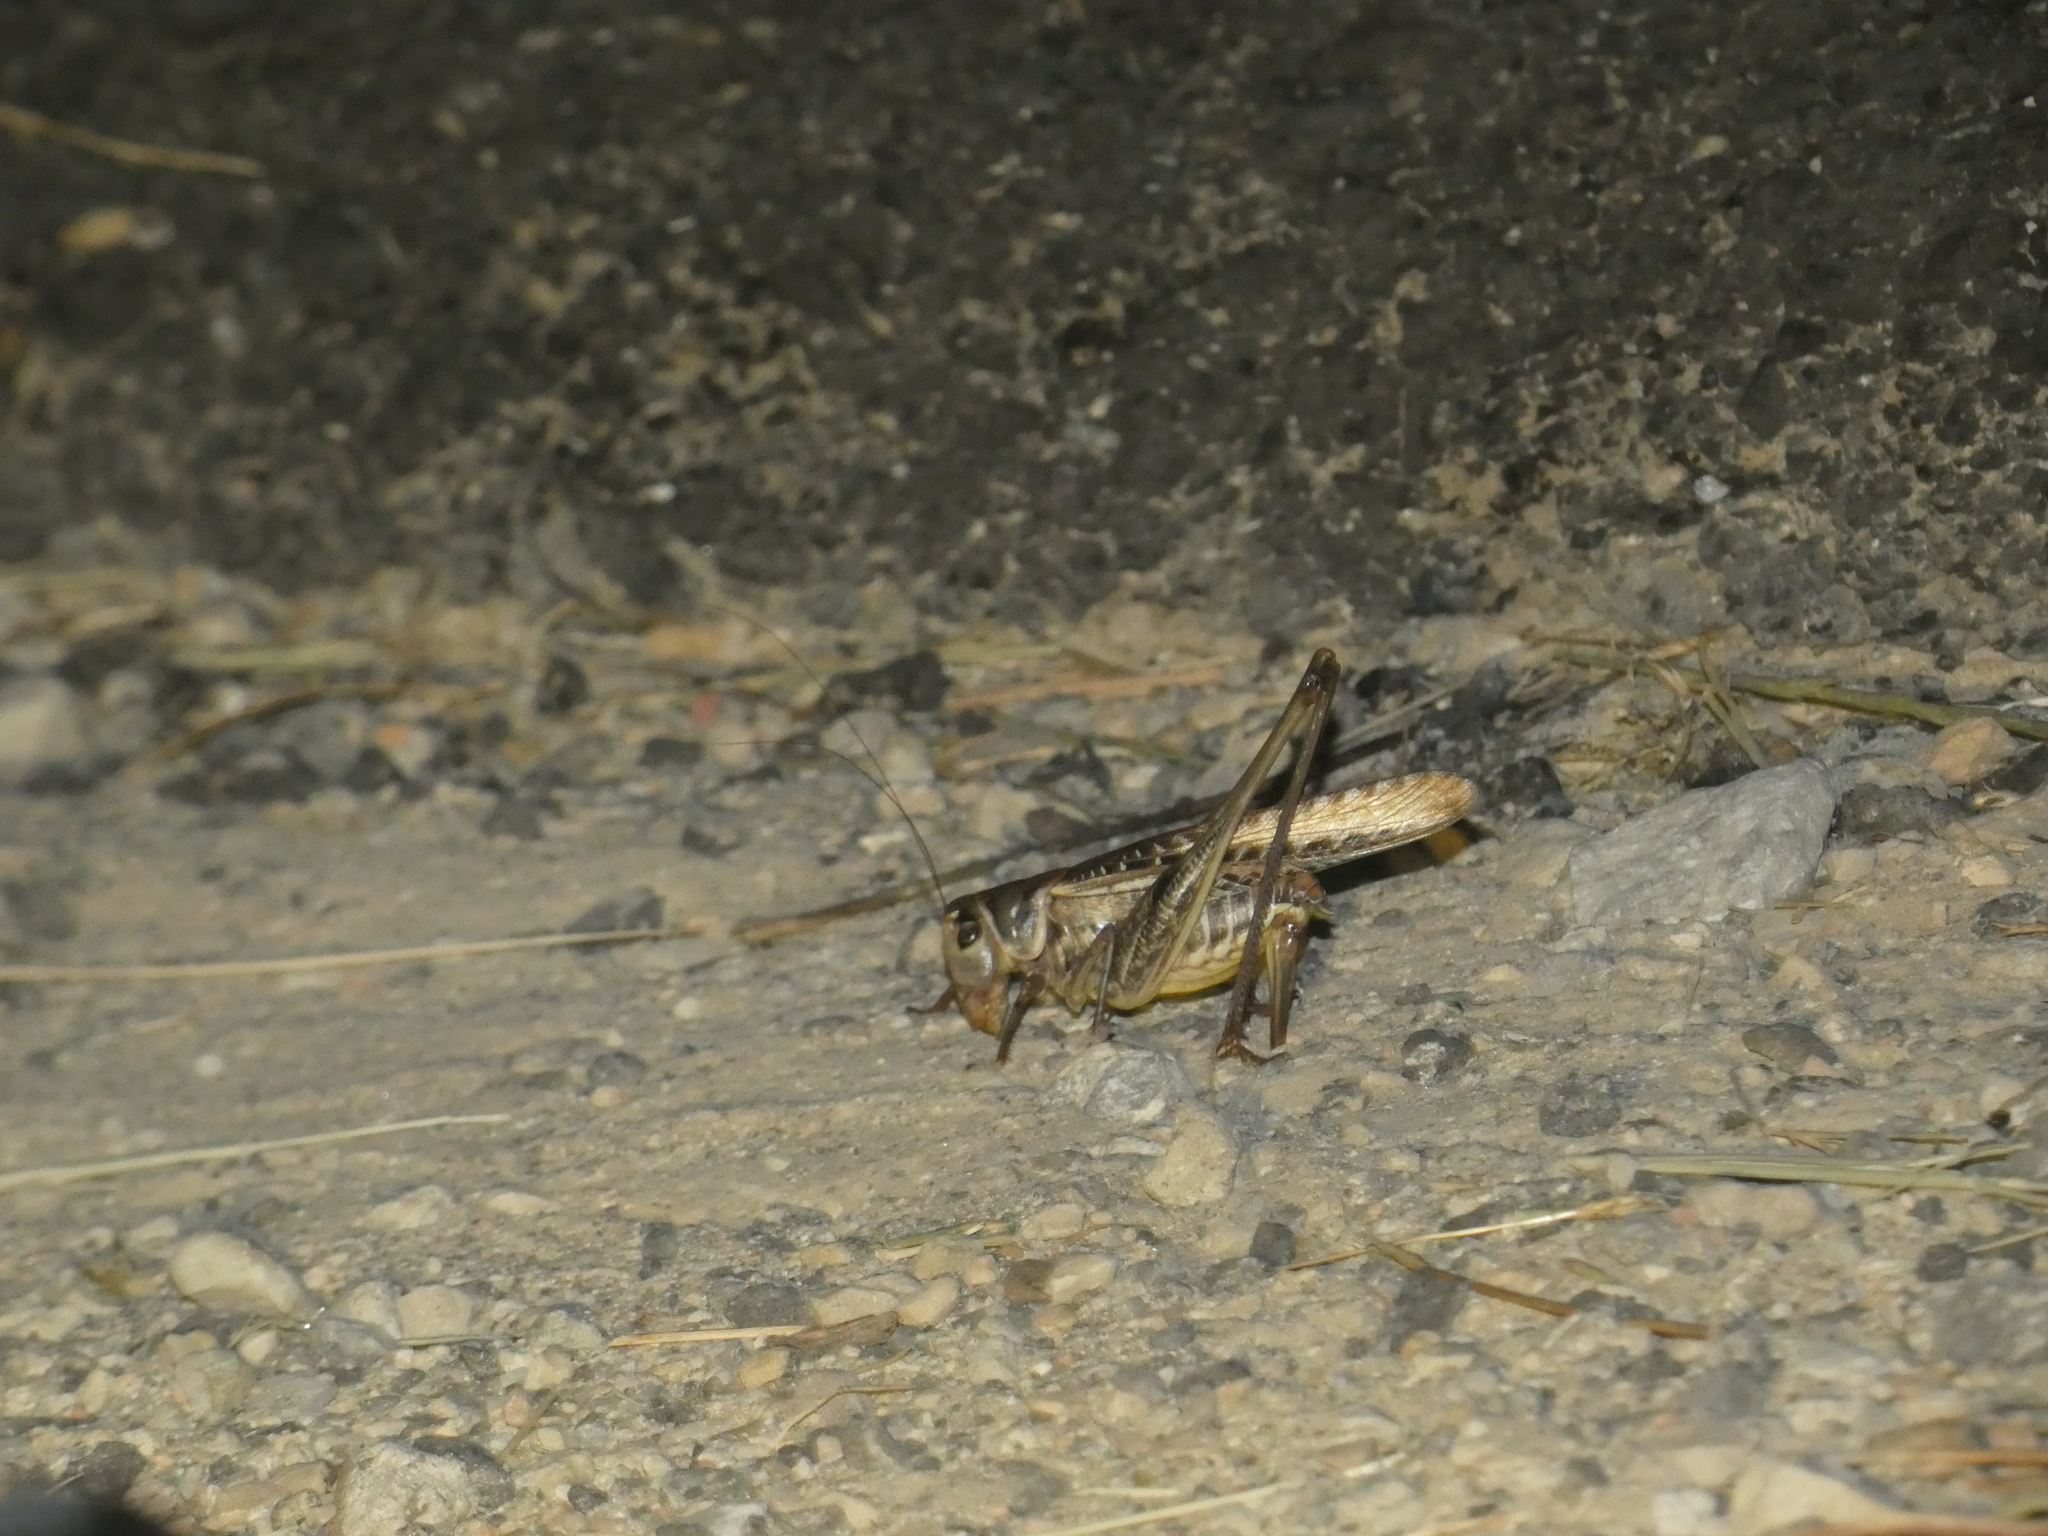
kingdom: Animalia
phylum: Arthropoda
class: Insecta
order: Orthoptera
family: Tettigoniidae
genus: Decticus
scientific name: Decticus albifrons
